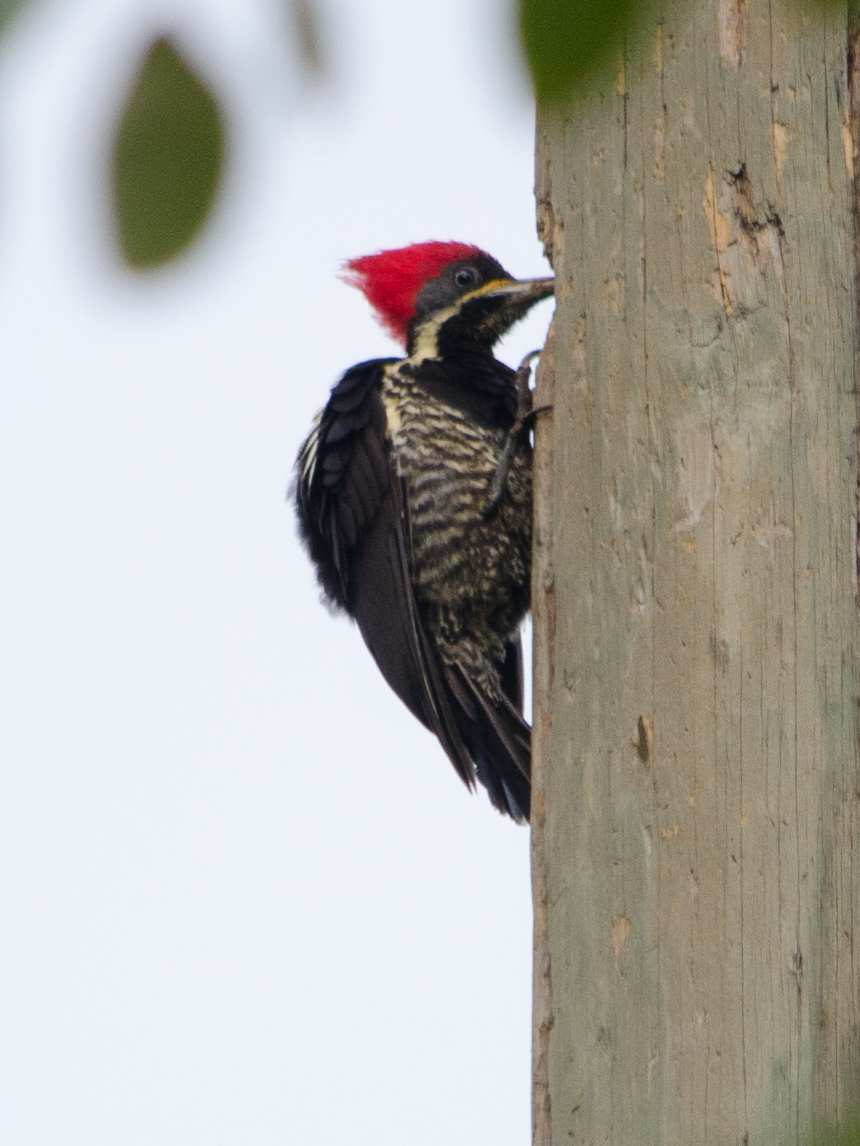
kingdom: Animalia
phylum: Chordata
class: Aves
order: Piciformes
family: Picidae
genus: Dryocopus
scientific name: Dryocopus lineatus
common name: Lineated woodpecker
